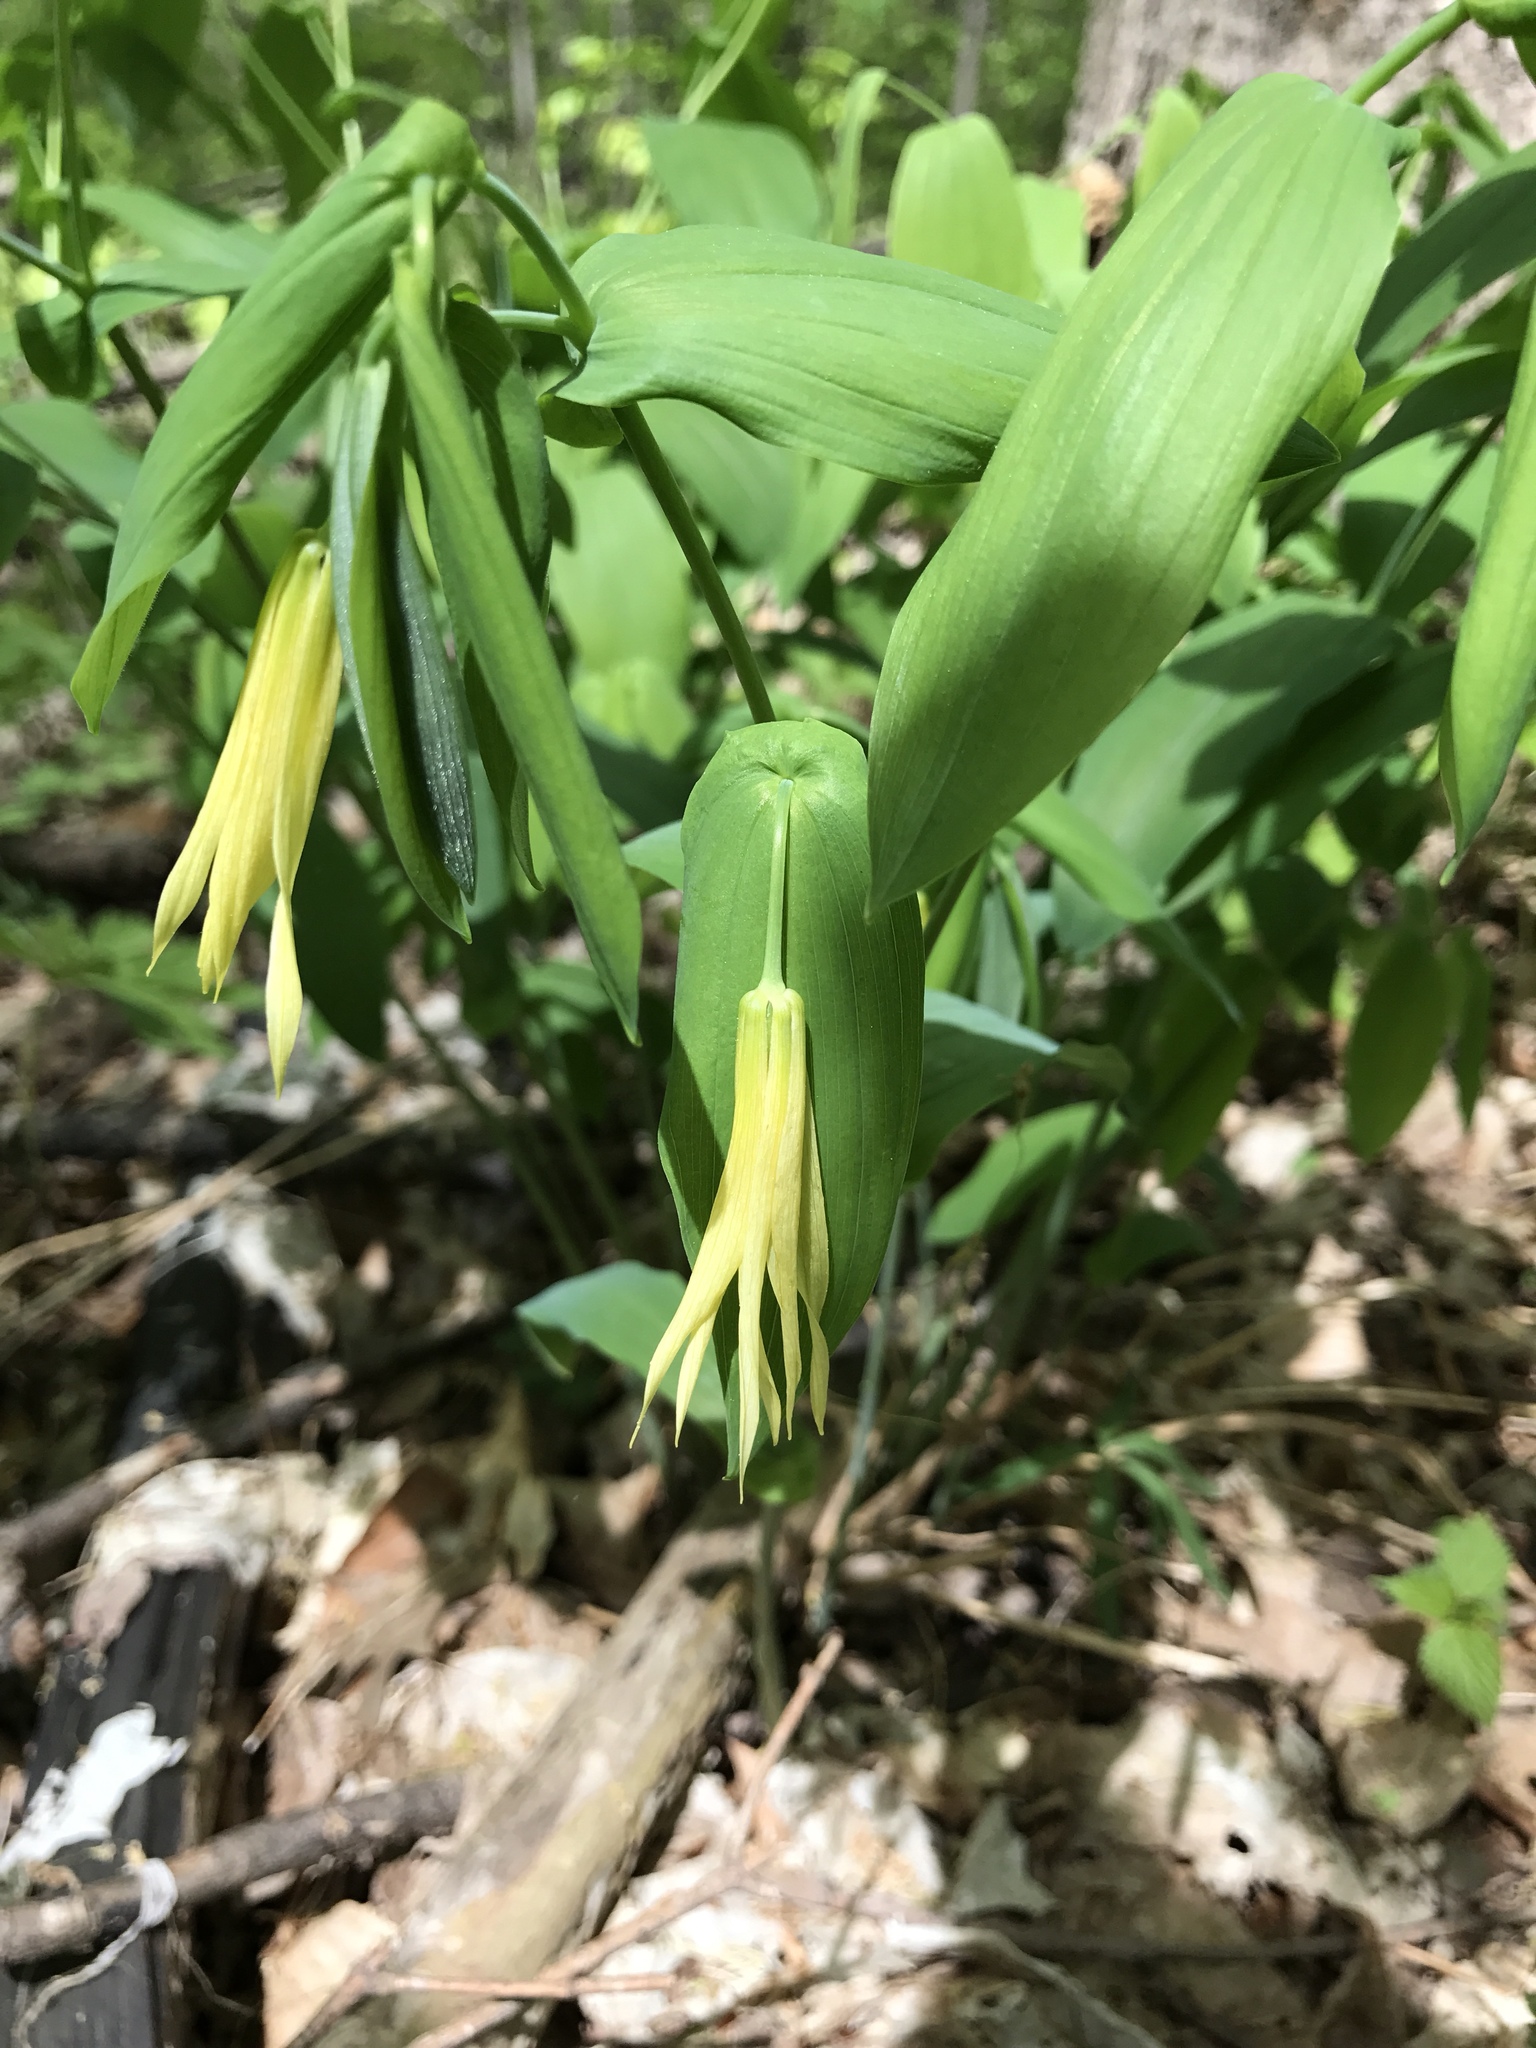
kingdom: Plantae
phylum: Tracheophyta
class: Liliopsida
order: Liliales
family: Colchicaceae
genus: Uvularia
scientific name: Uvularia grandiflora
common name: Bellwort
